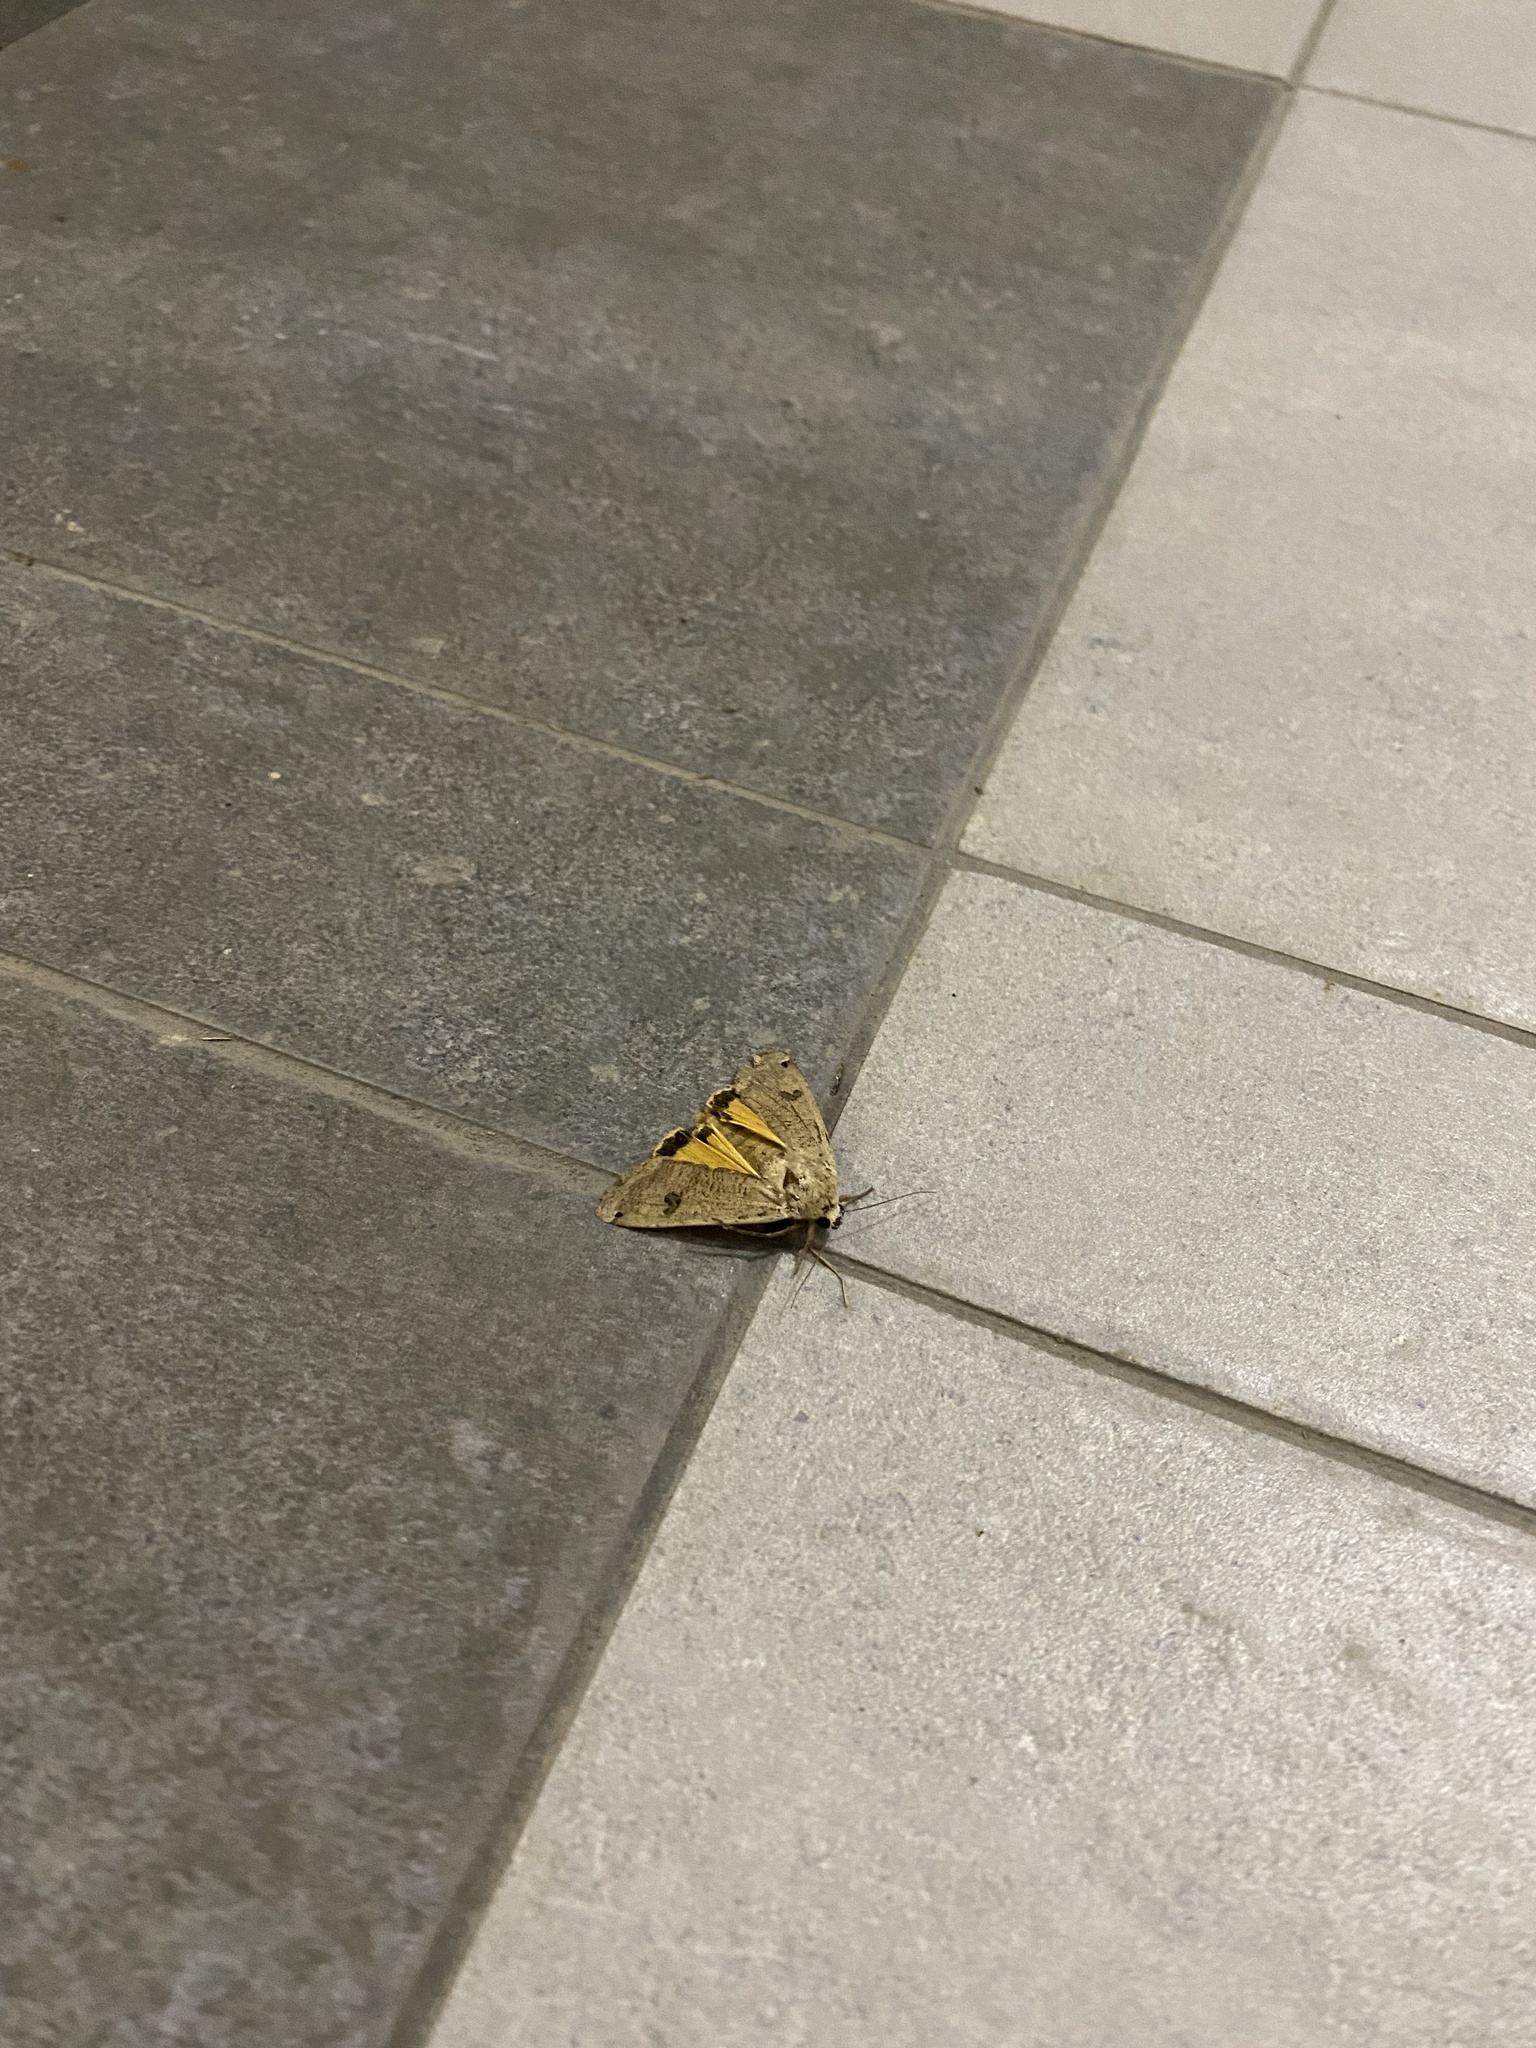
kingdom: Animalia
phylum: Arthropoda
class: Insecta
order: Lepidoptera
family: Noctuidae
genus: Noctua
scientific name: Noctua pronuba
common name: Large yellow underwing
